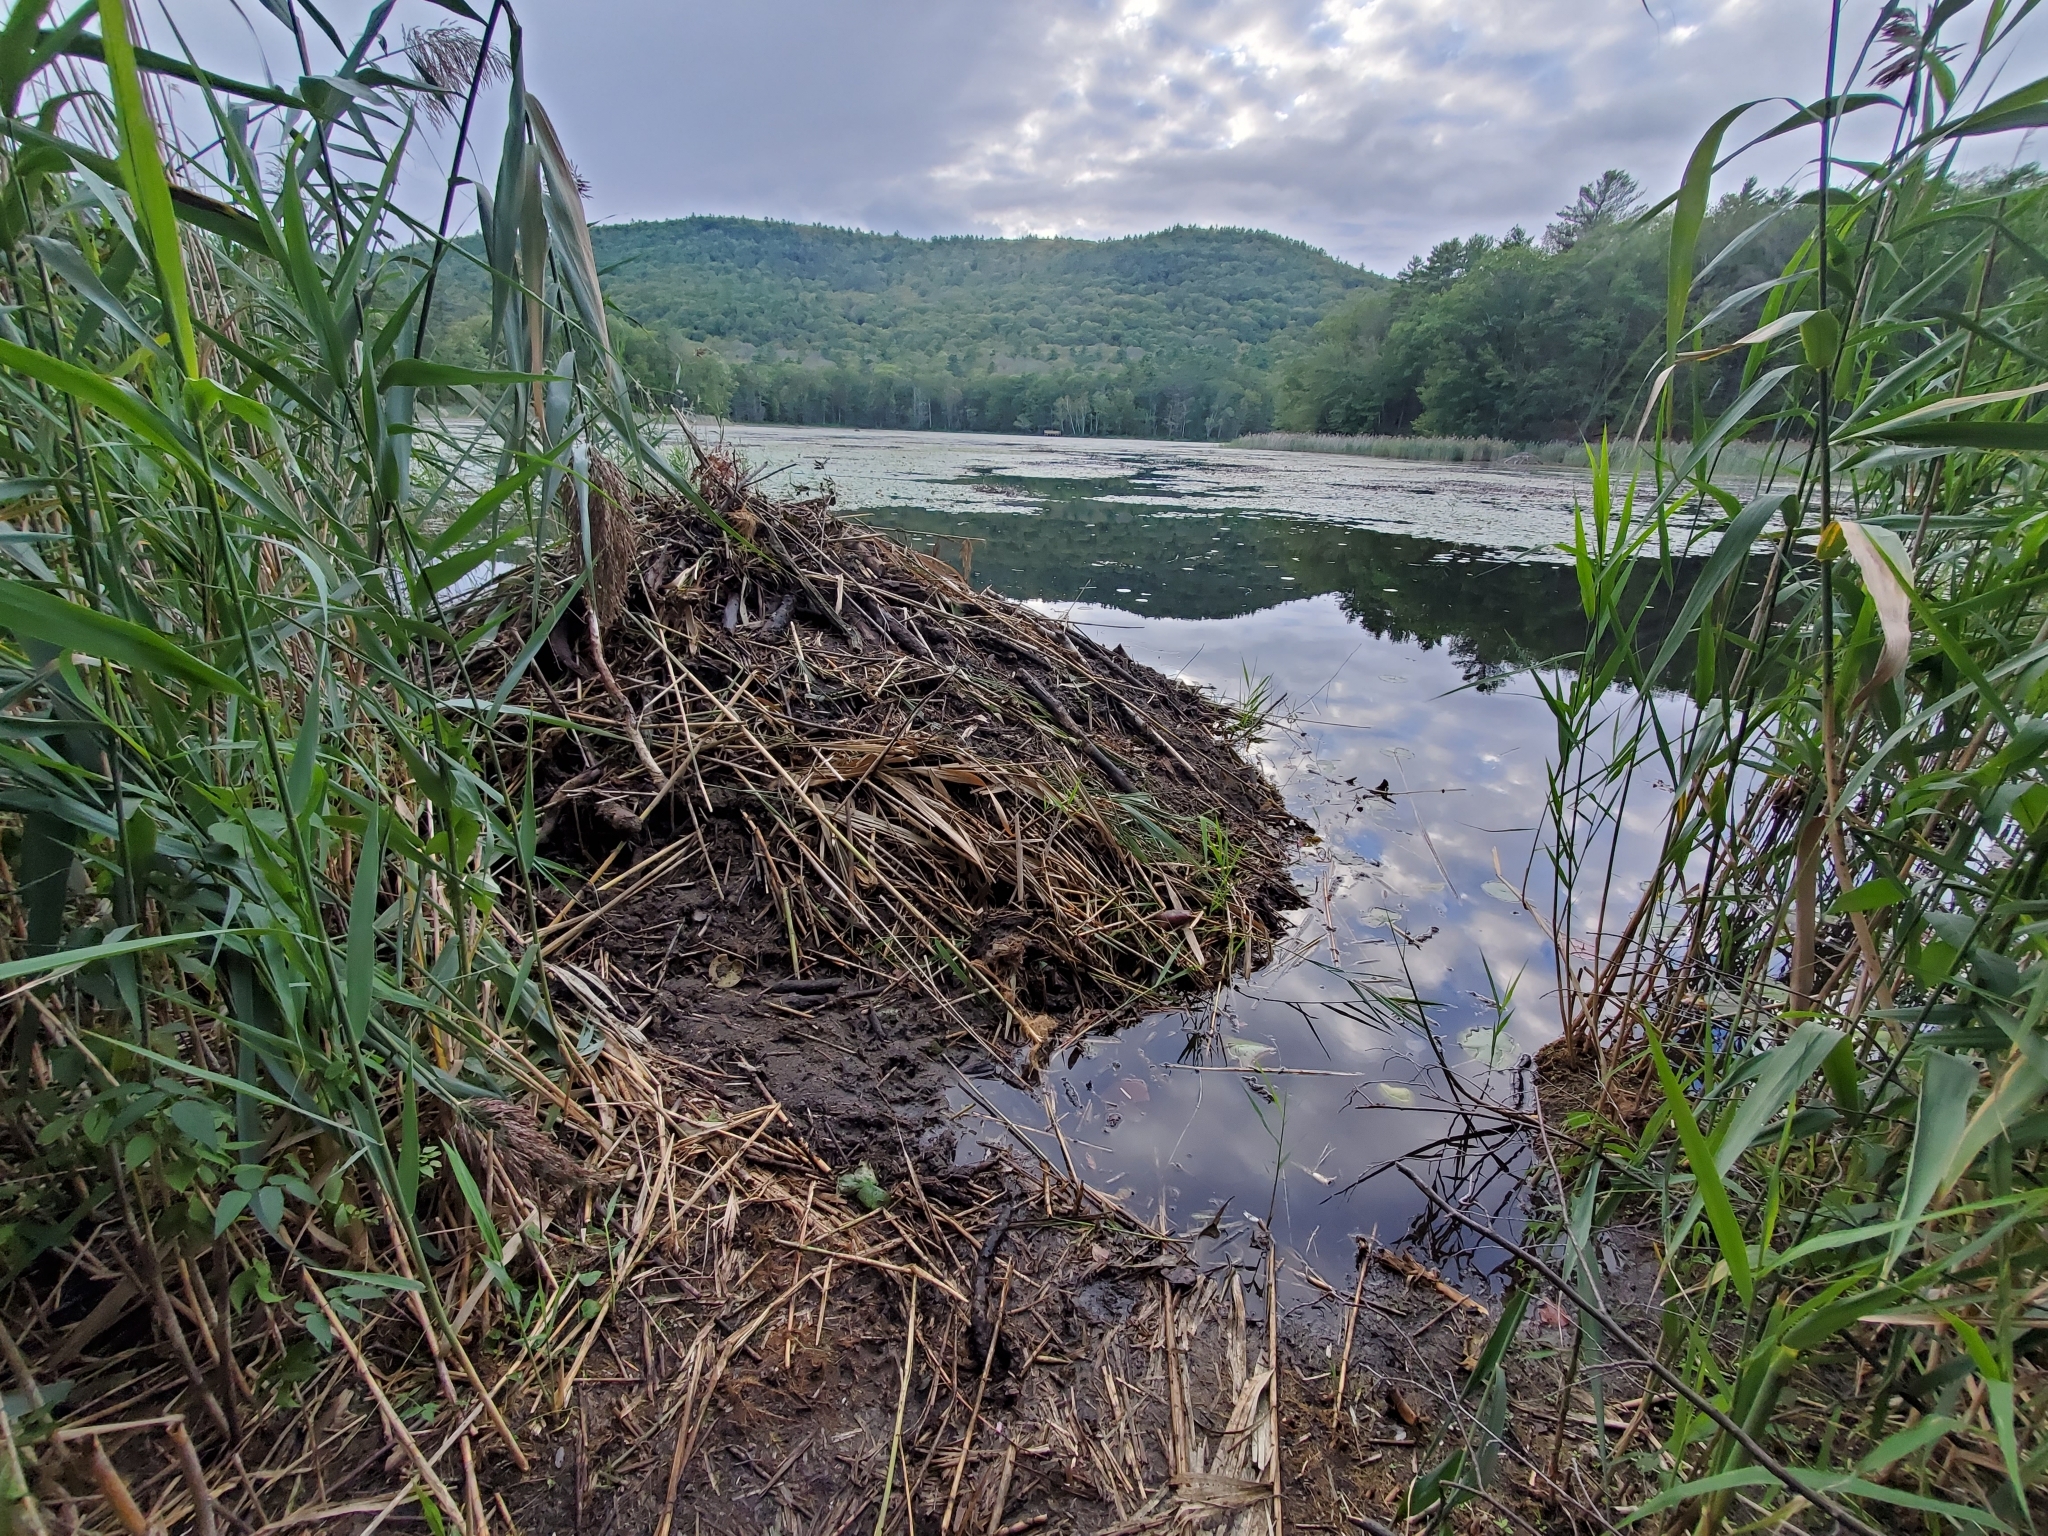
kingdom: Animalia
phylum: Chordata
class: Mammalia
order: Rodentia
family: Castoridae
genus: Castor
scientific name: Castor canadensis
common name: American beaver
